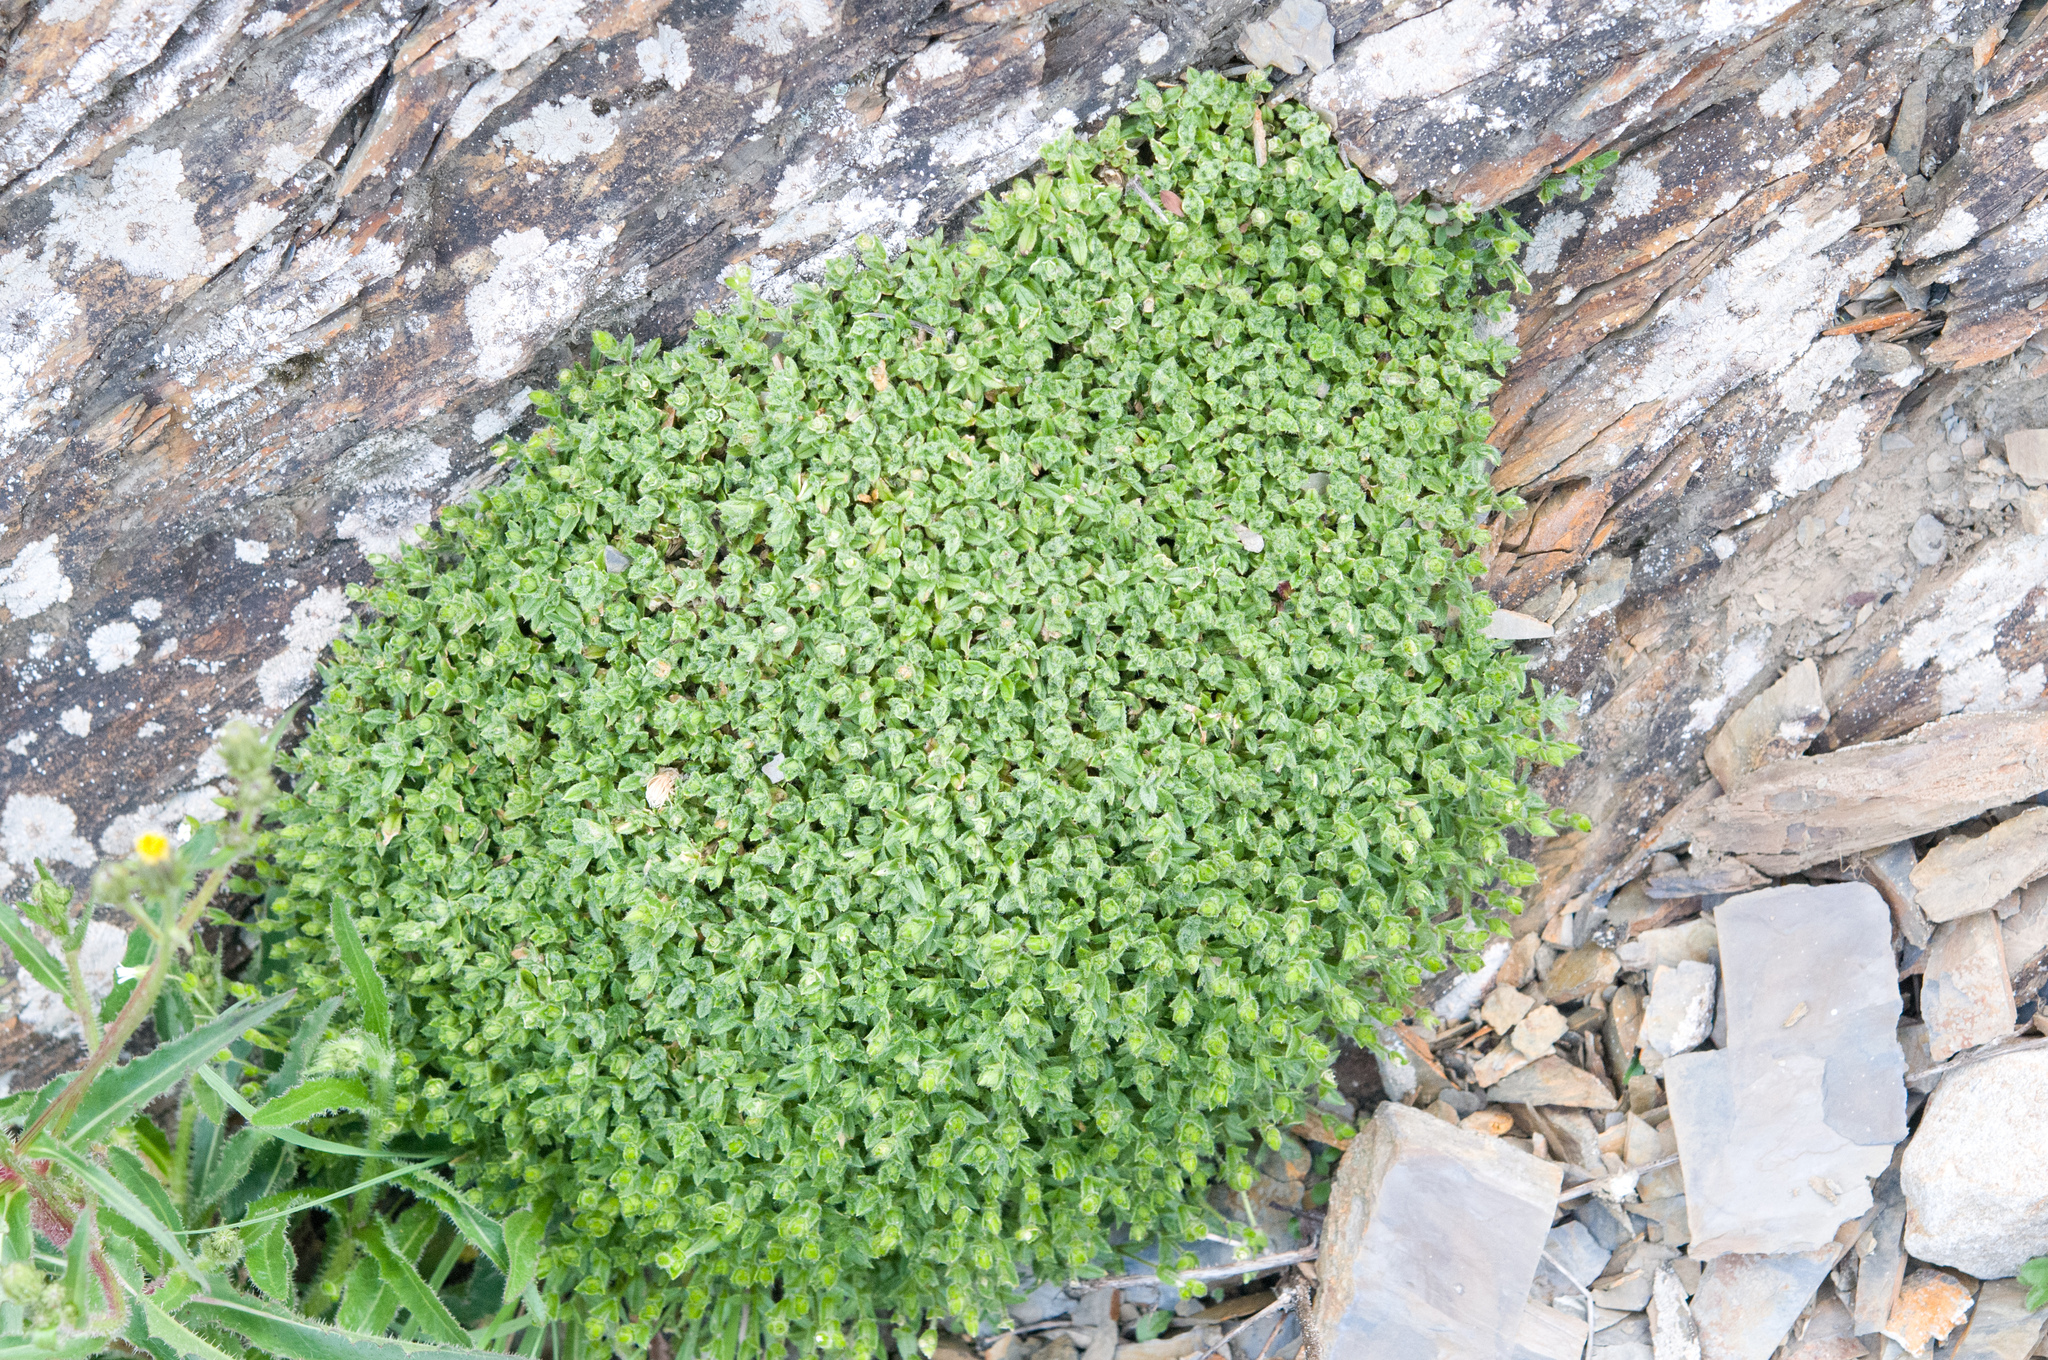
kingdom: Plantae
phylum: Tracheophyta
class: Magnoliopsida
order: Caryophyllales
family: Caryophyllaceae
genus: Cerastium
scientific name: Cerastium morrisonense
